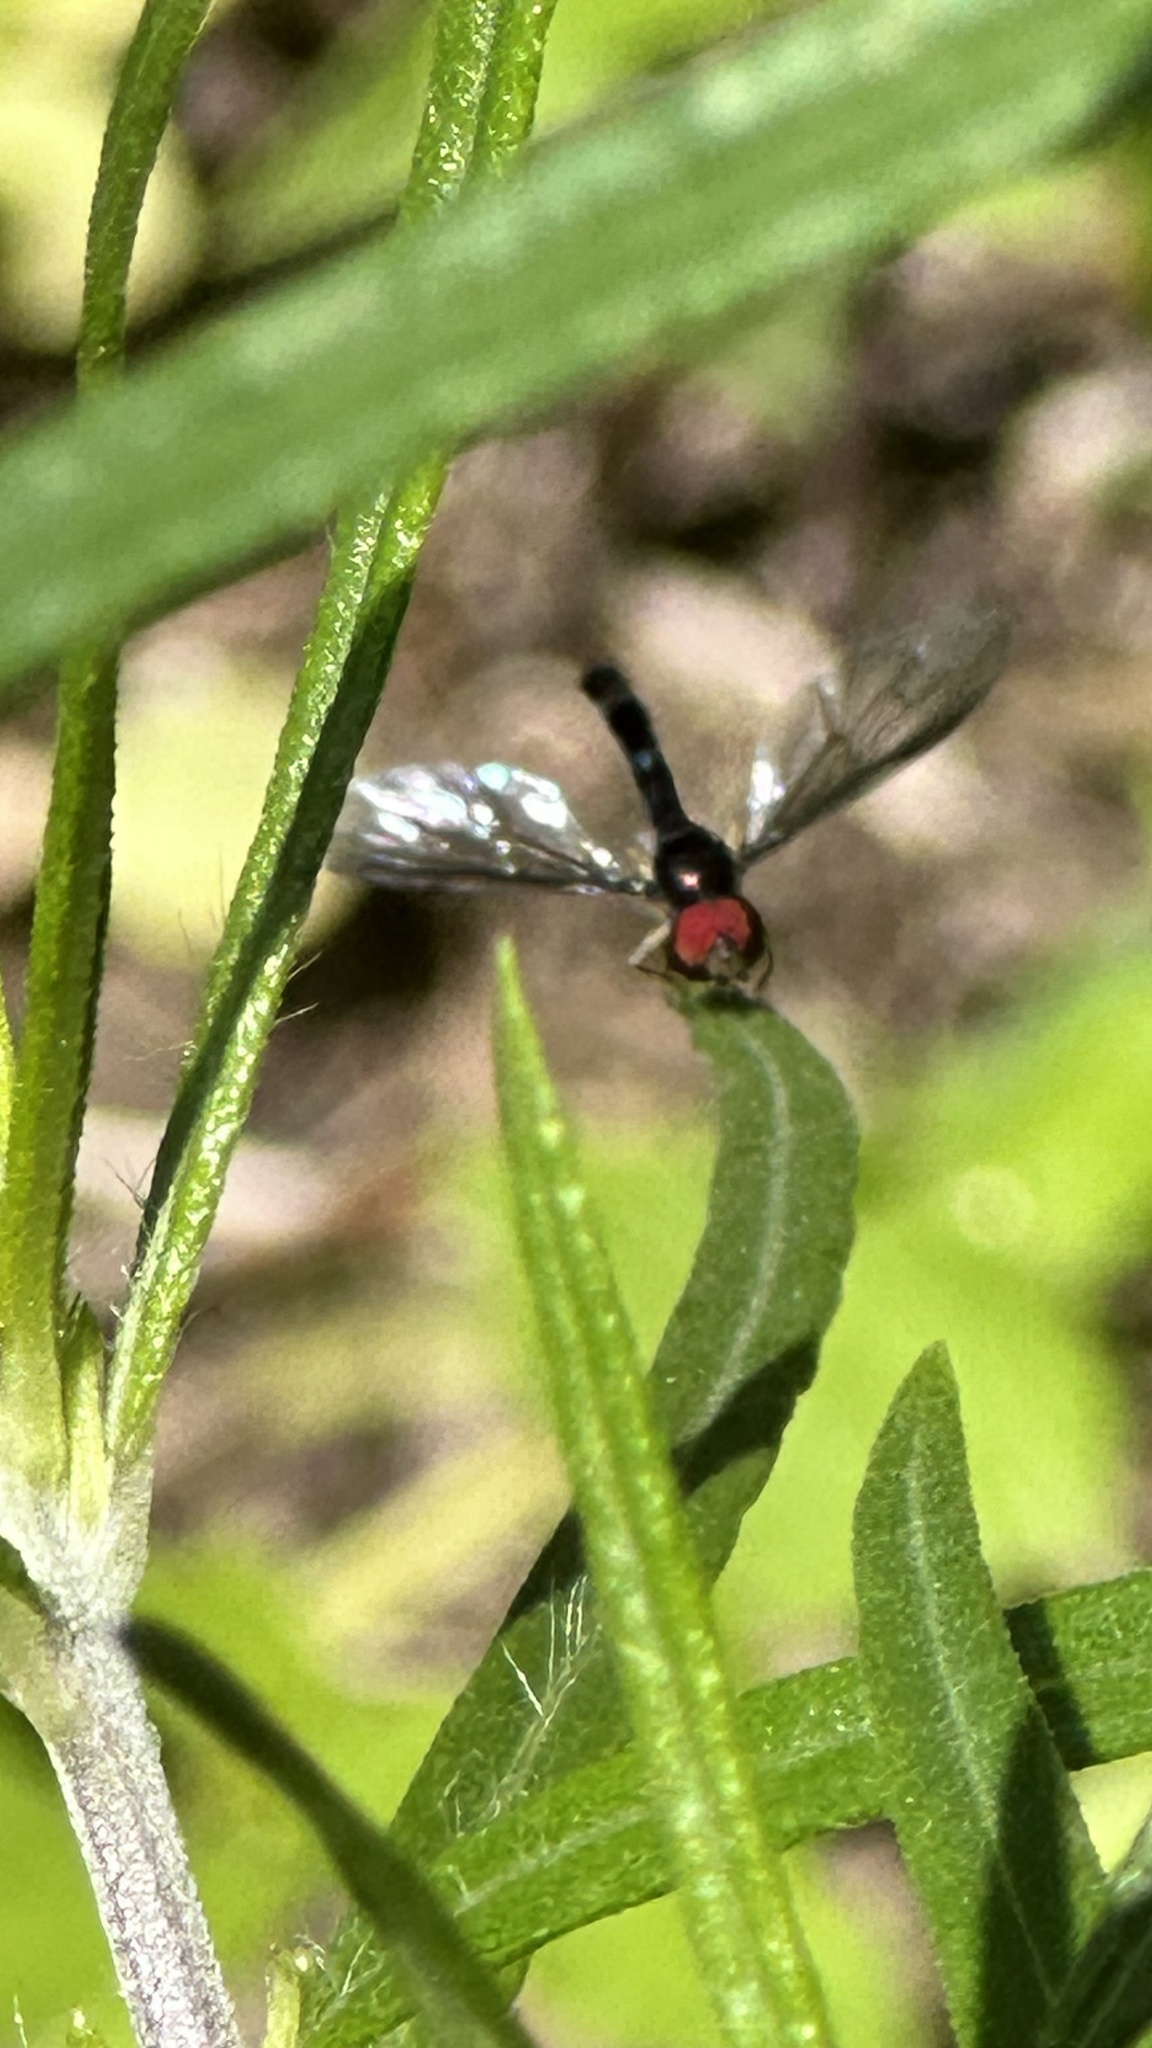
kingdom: Animalia
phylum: Arthropoda
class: Insecta
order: Diptera
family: Syrphidae
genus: Ocyptamus
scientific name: Ocyptamus fuscipennis
